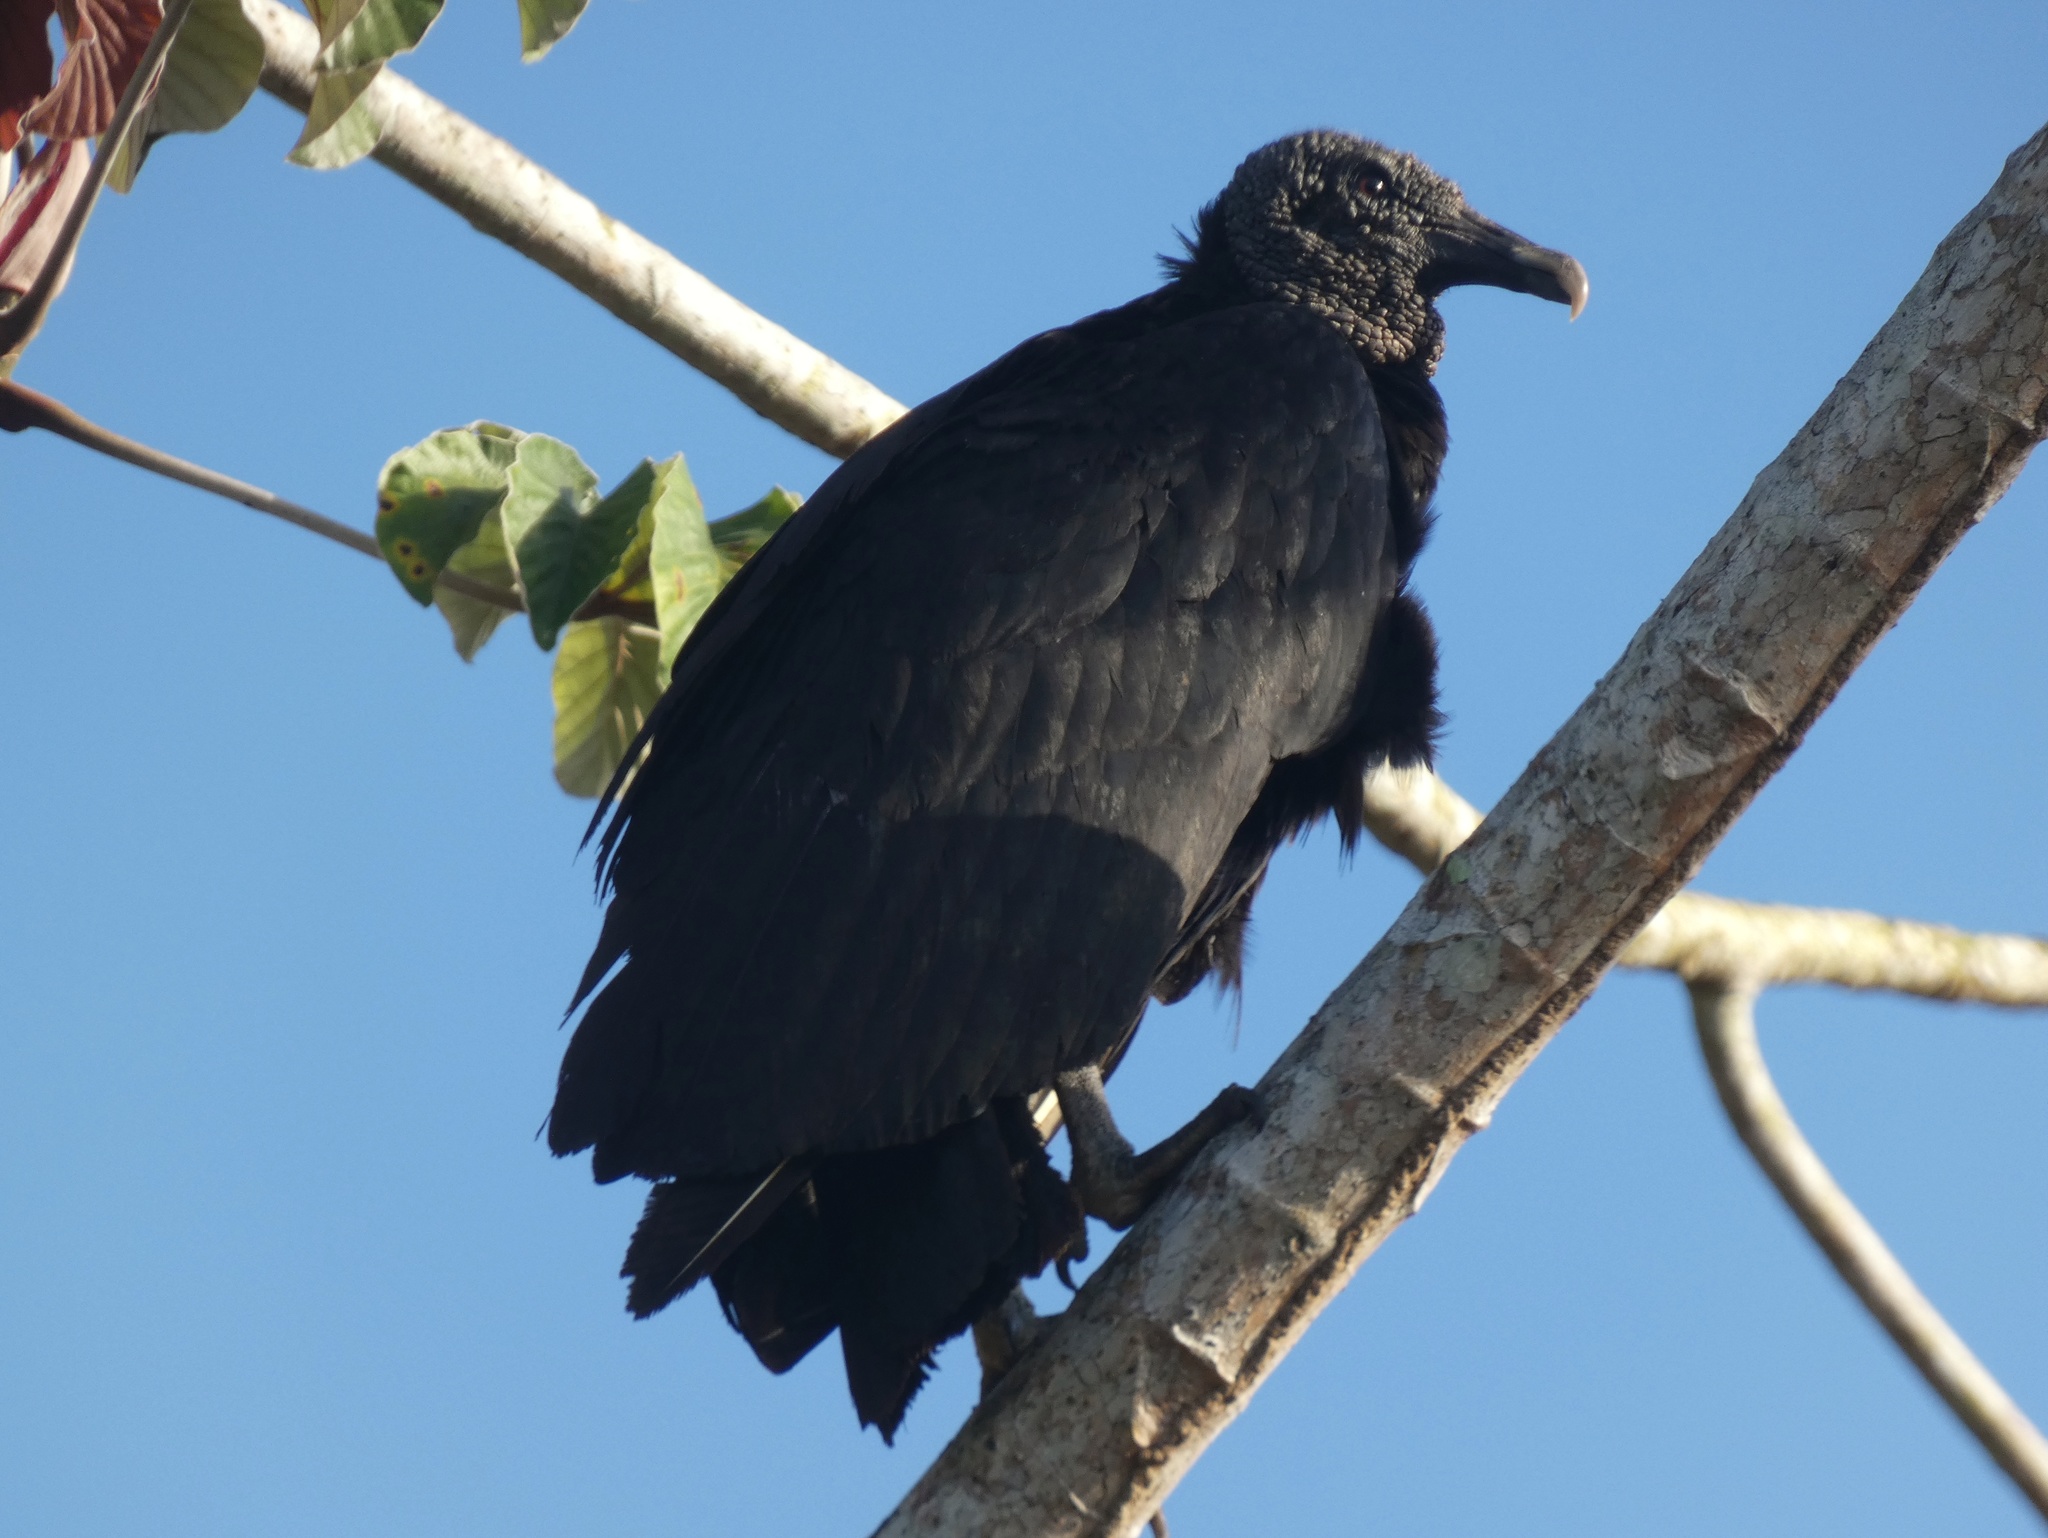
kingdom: Animalia
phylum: Chordata
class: Aves
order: Accipitriformes
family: Cathartidae
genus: Coragyps
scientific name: Coragyps atratus
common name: Black vulture
